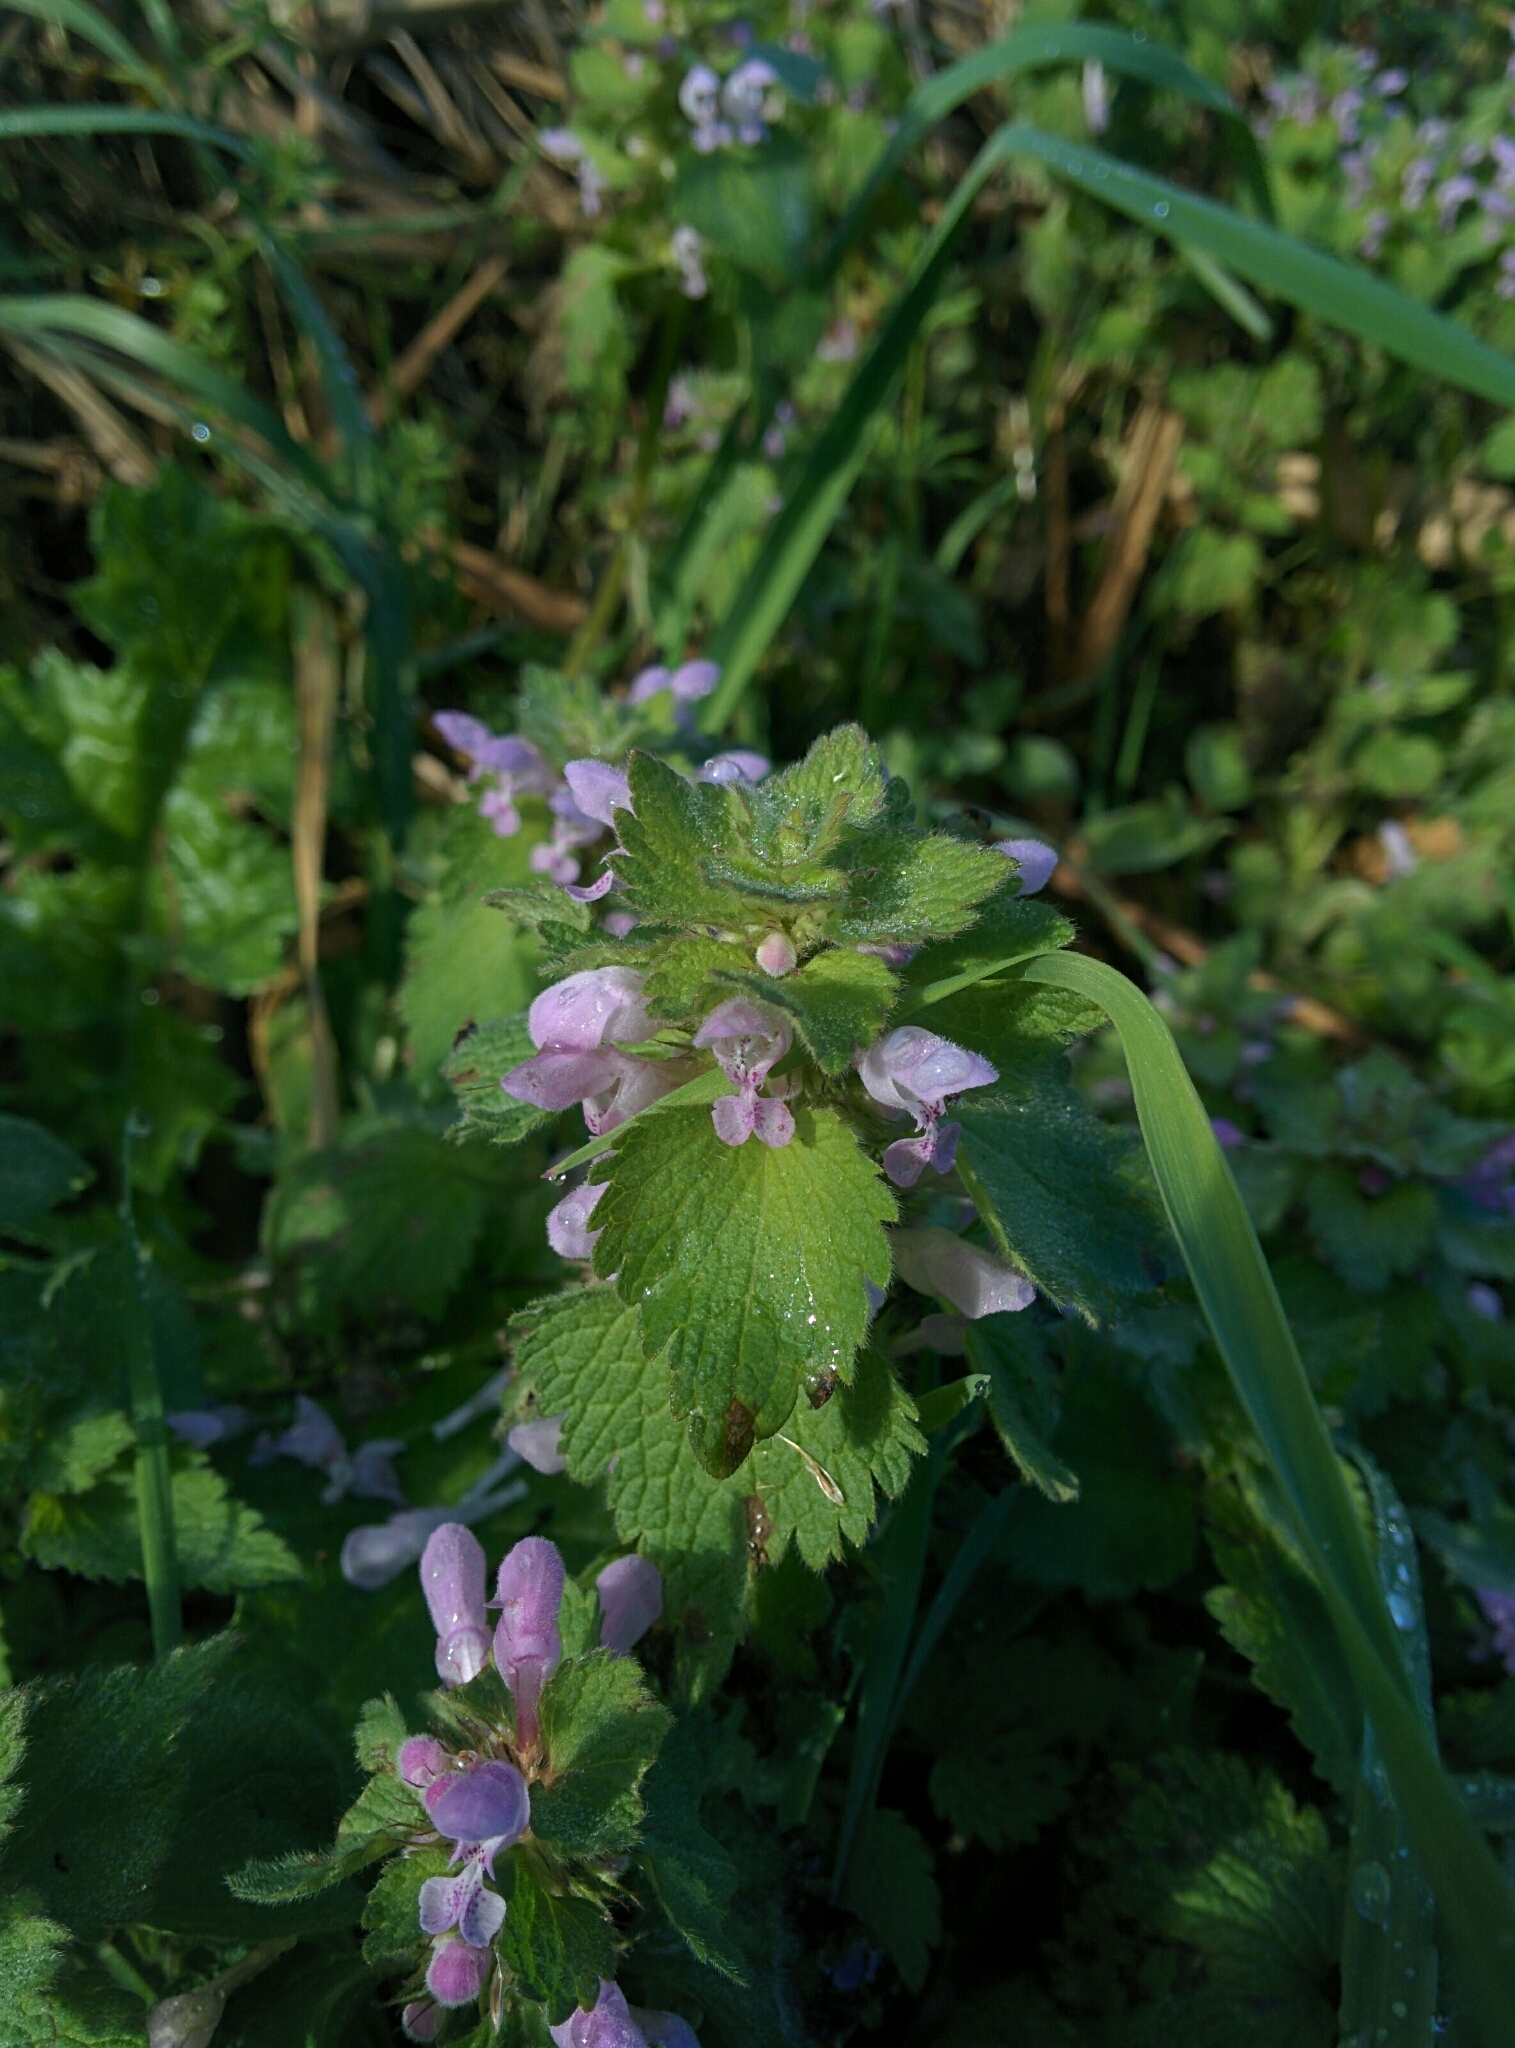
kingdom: Plantae
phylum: Tracheophyta
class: Magnoliopsida
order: Lamiales
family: Lamiaceae
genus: Lamium
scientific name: Lamium purpureum
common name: Red dead-nettle
